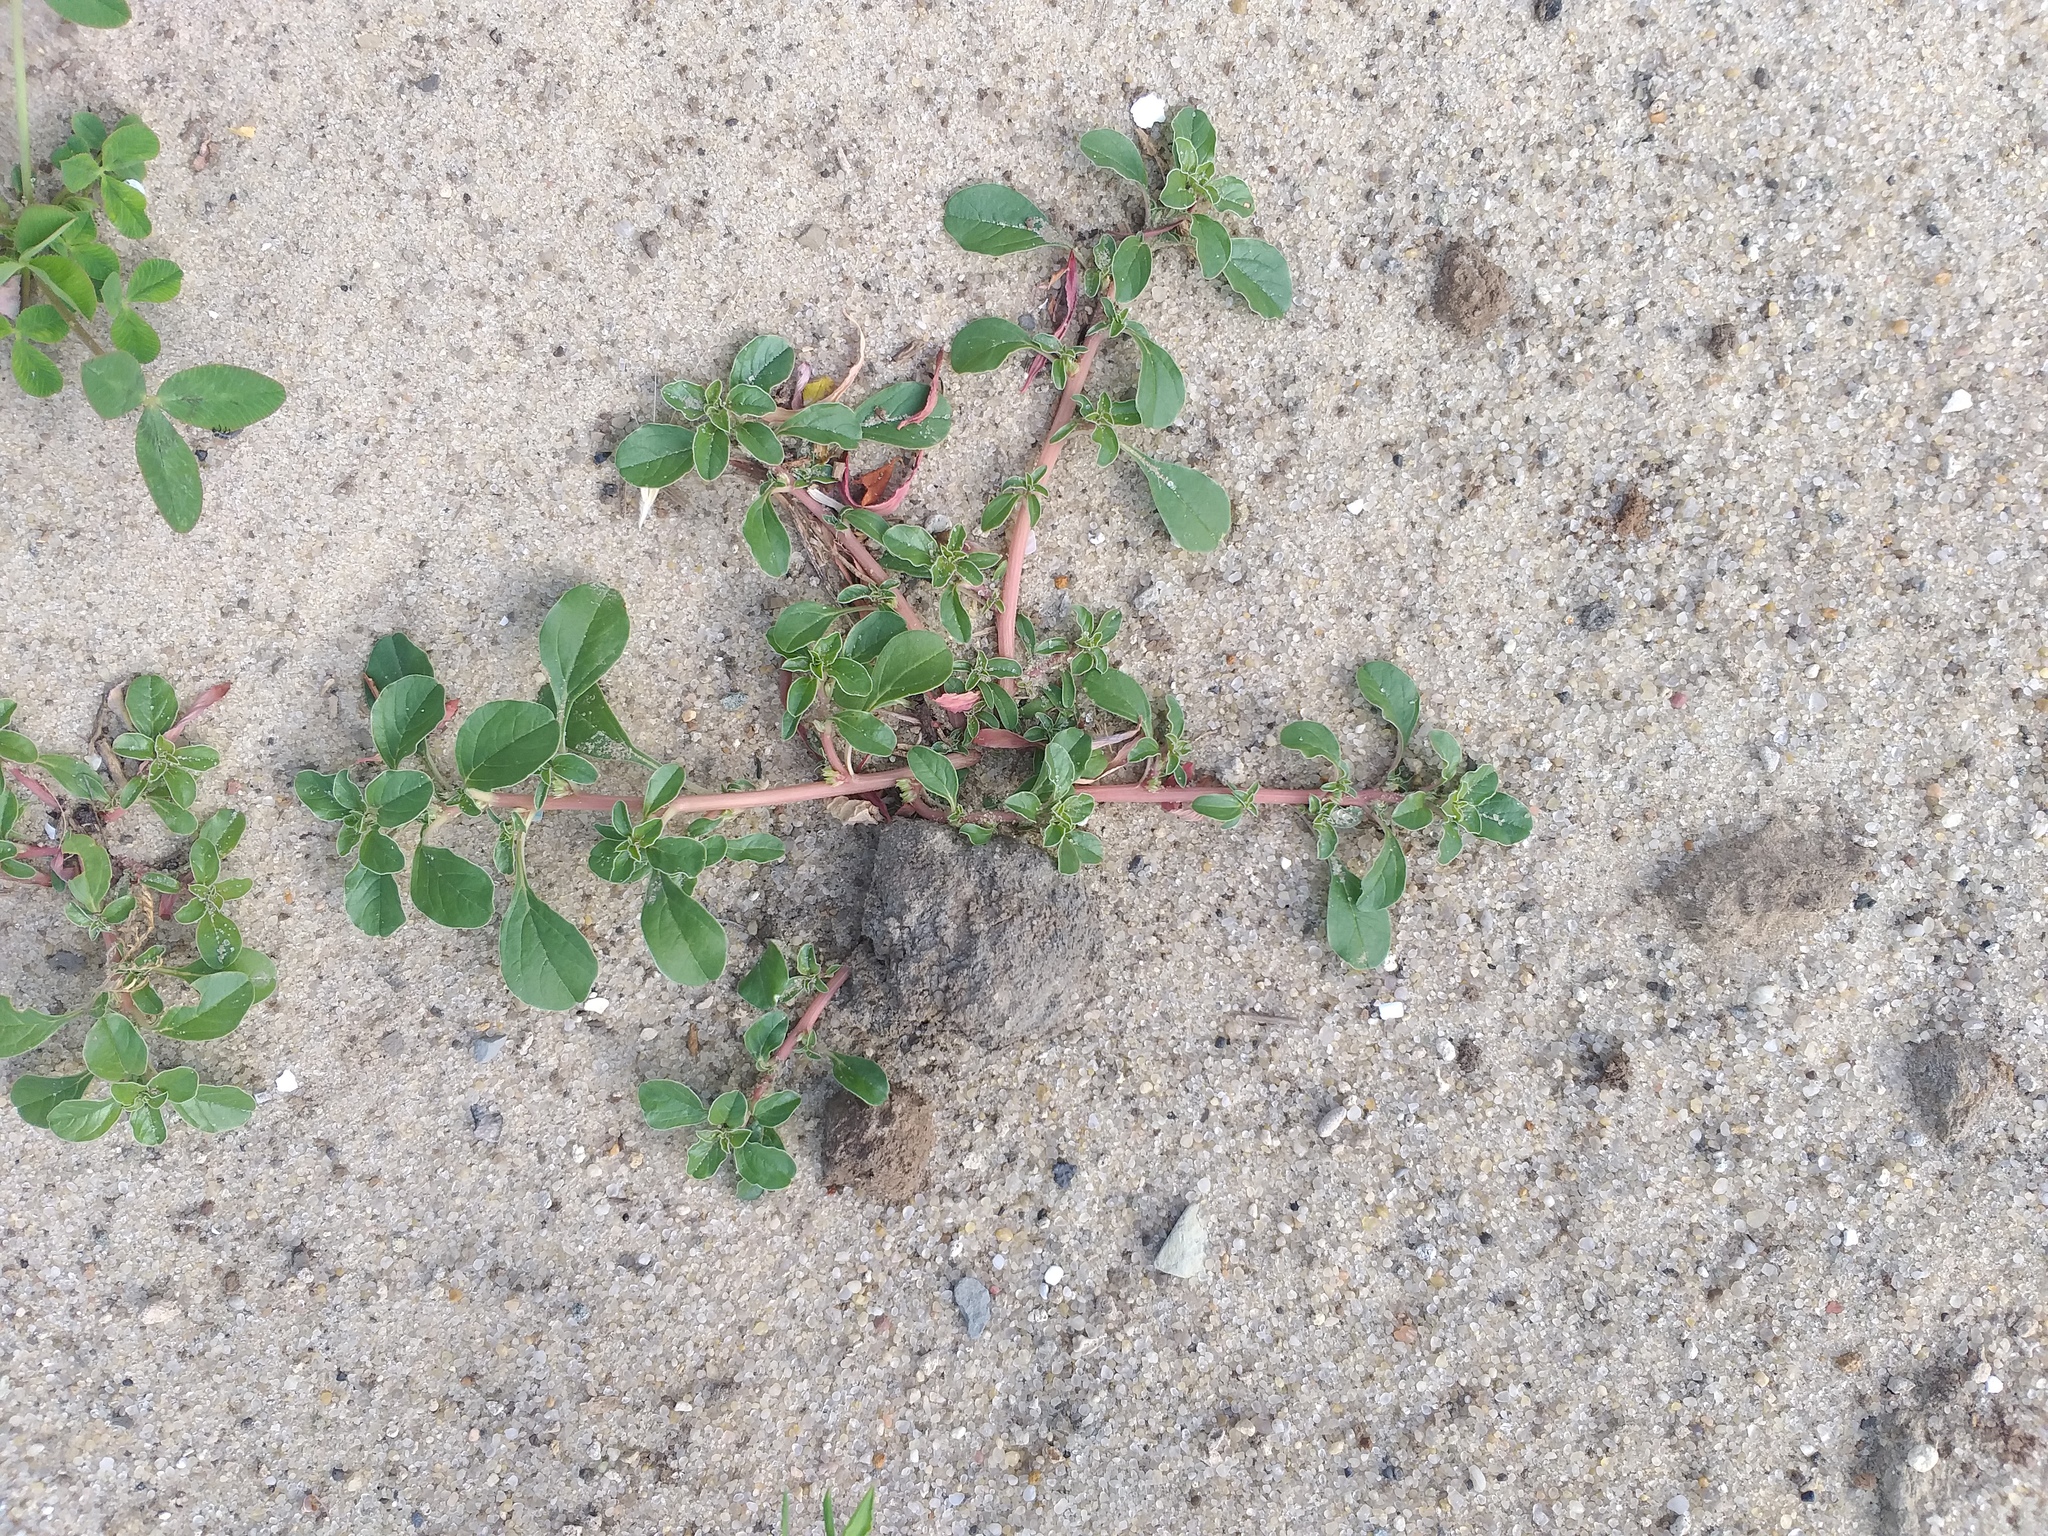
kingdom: Plantae
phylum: Tracheophyta
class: Magnoliopsida
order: Caryophyllales
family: Amaranthaceae
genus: Amaranthus
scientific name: Amaranthus blitoides
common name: Prostrate pigweed
